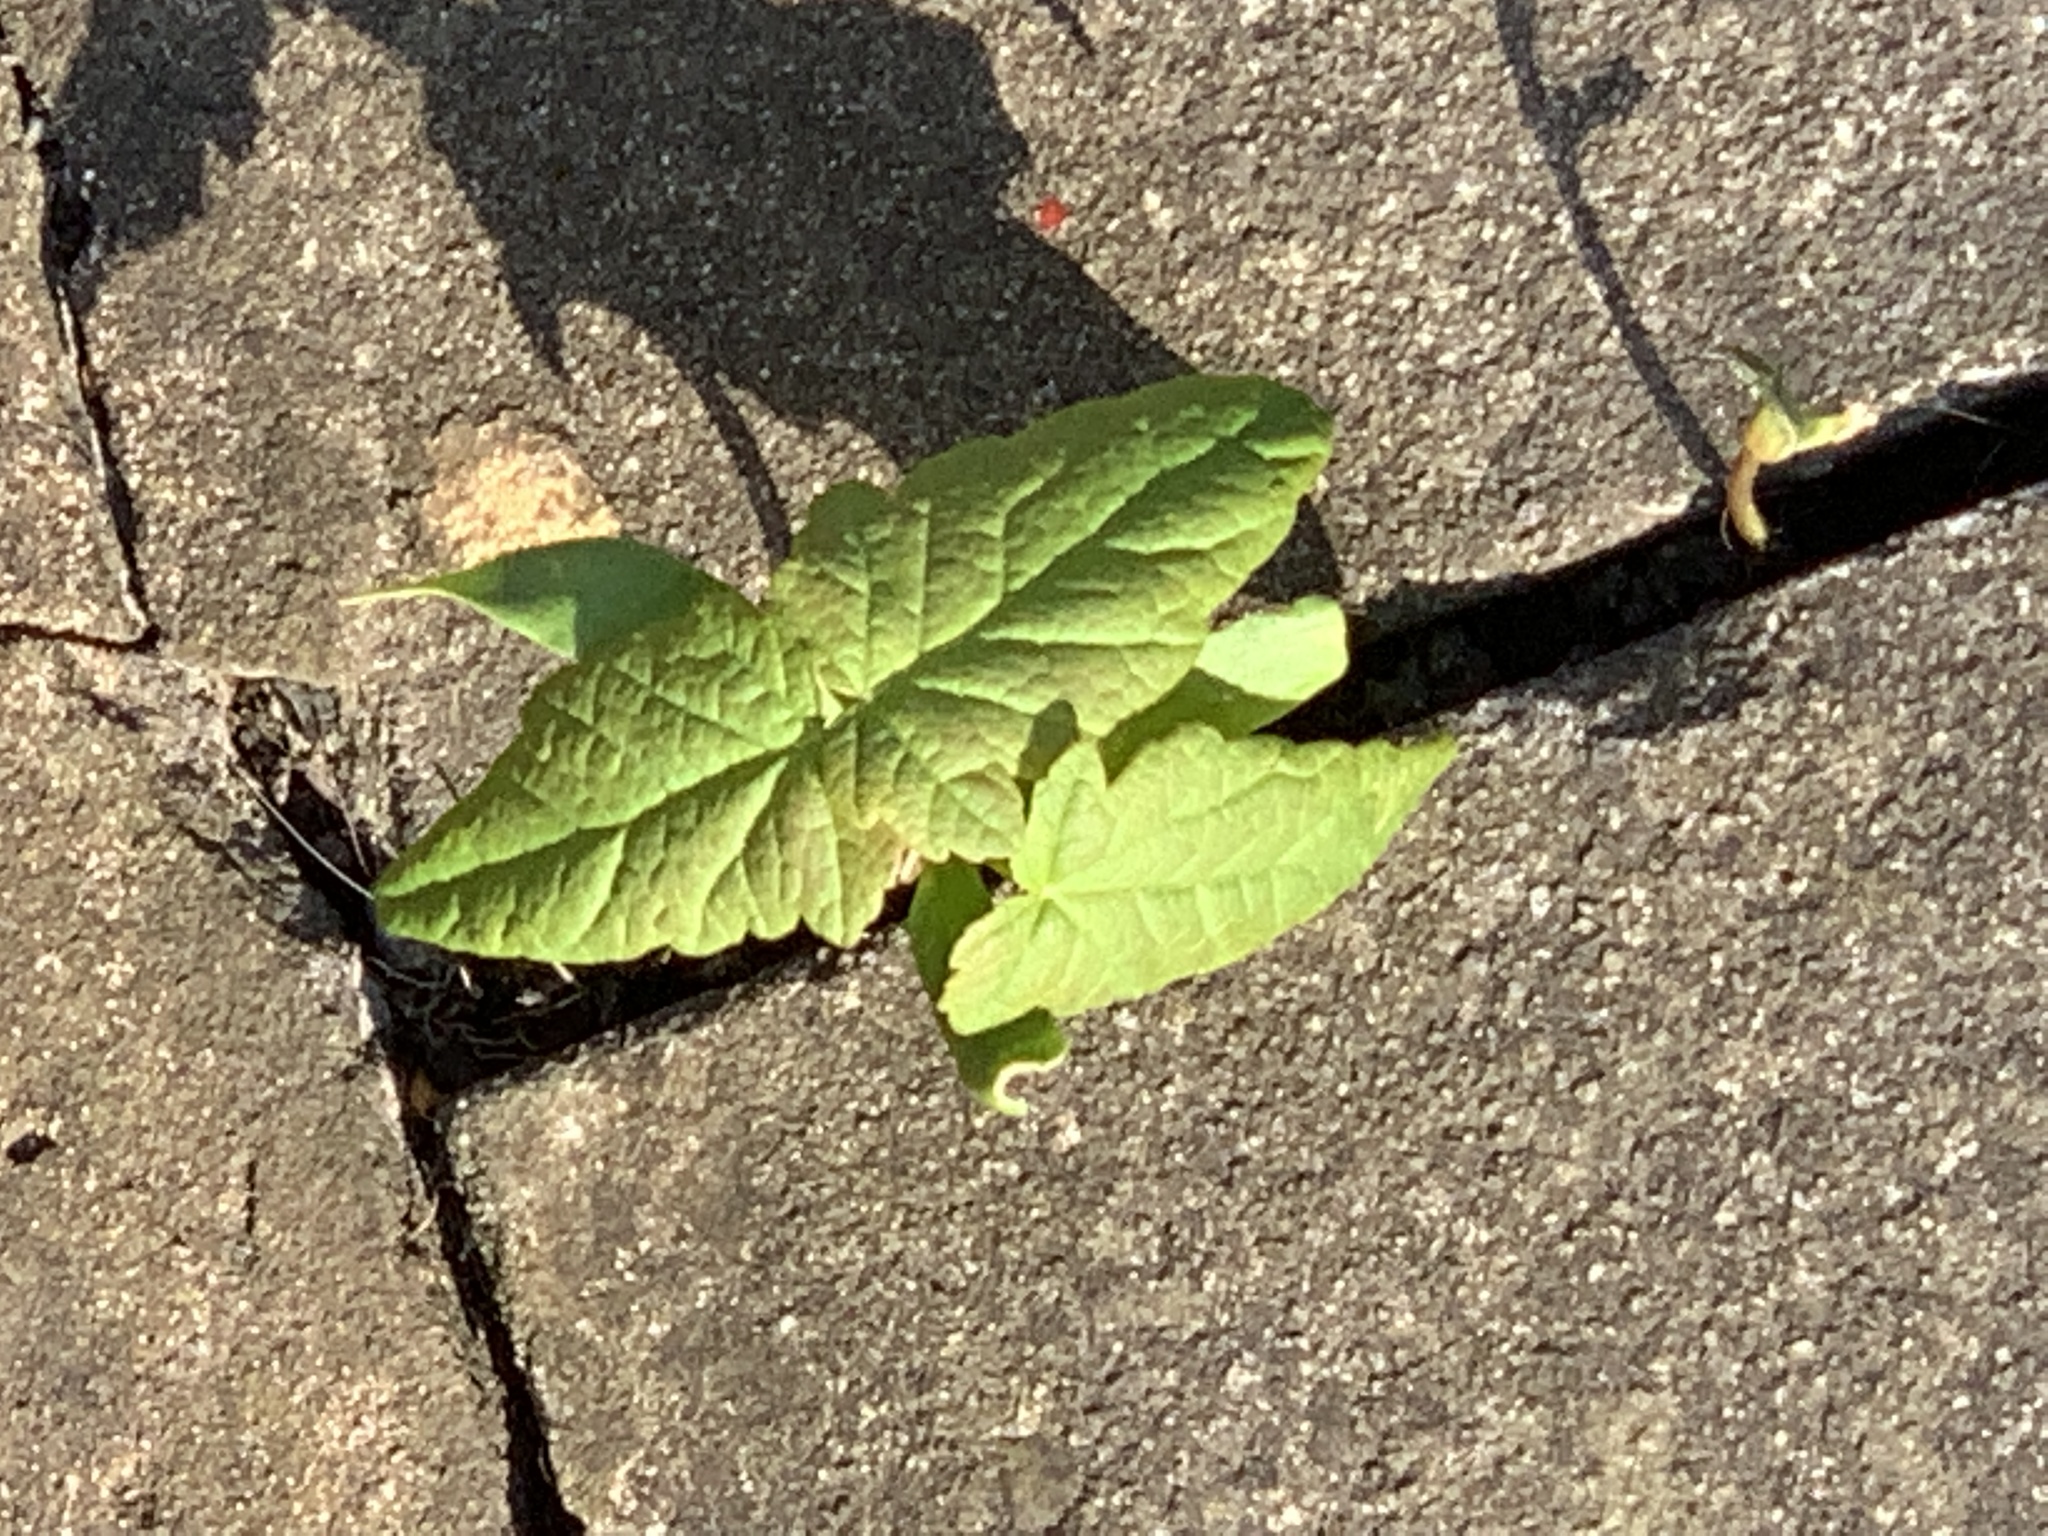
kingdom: Plantae
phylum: Tracheophyta
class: Magnoliopsida
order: Sapindales
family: Sapindaceae
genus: Acer
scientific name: Acer pseudoplatanus
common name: Sycamore
